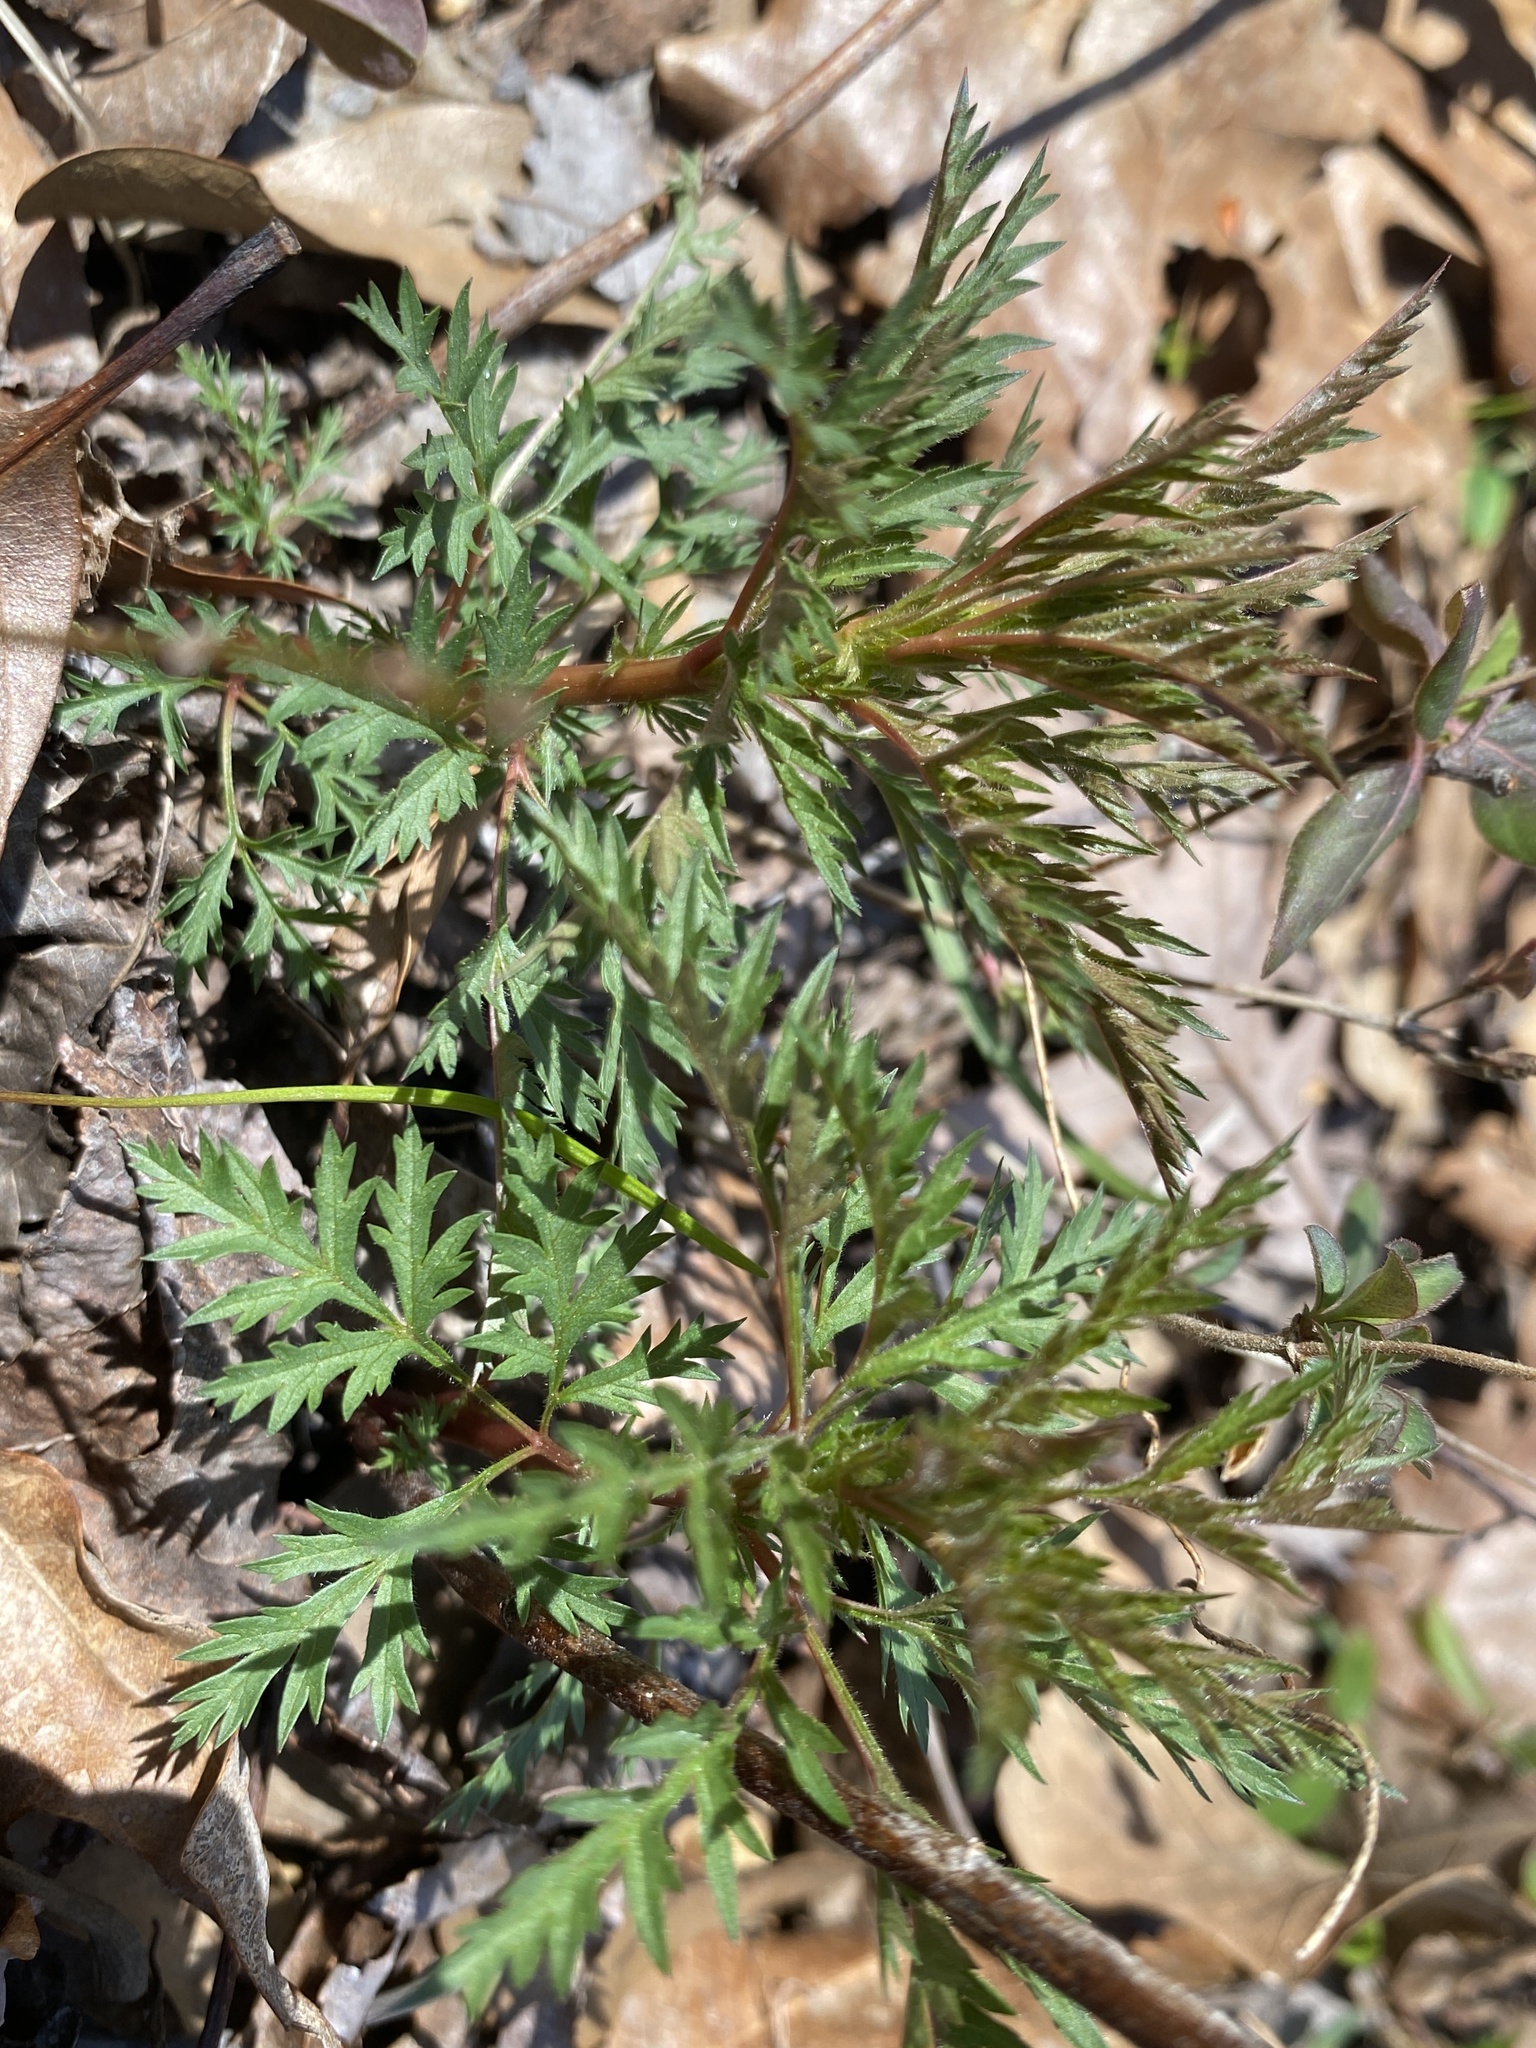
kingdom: Plantae
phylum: Tracheophyta
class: Magnoliopsida
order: Rosales
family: Rosaceae
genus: Gillenia
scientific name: Gillenia stipulata
